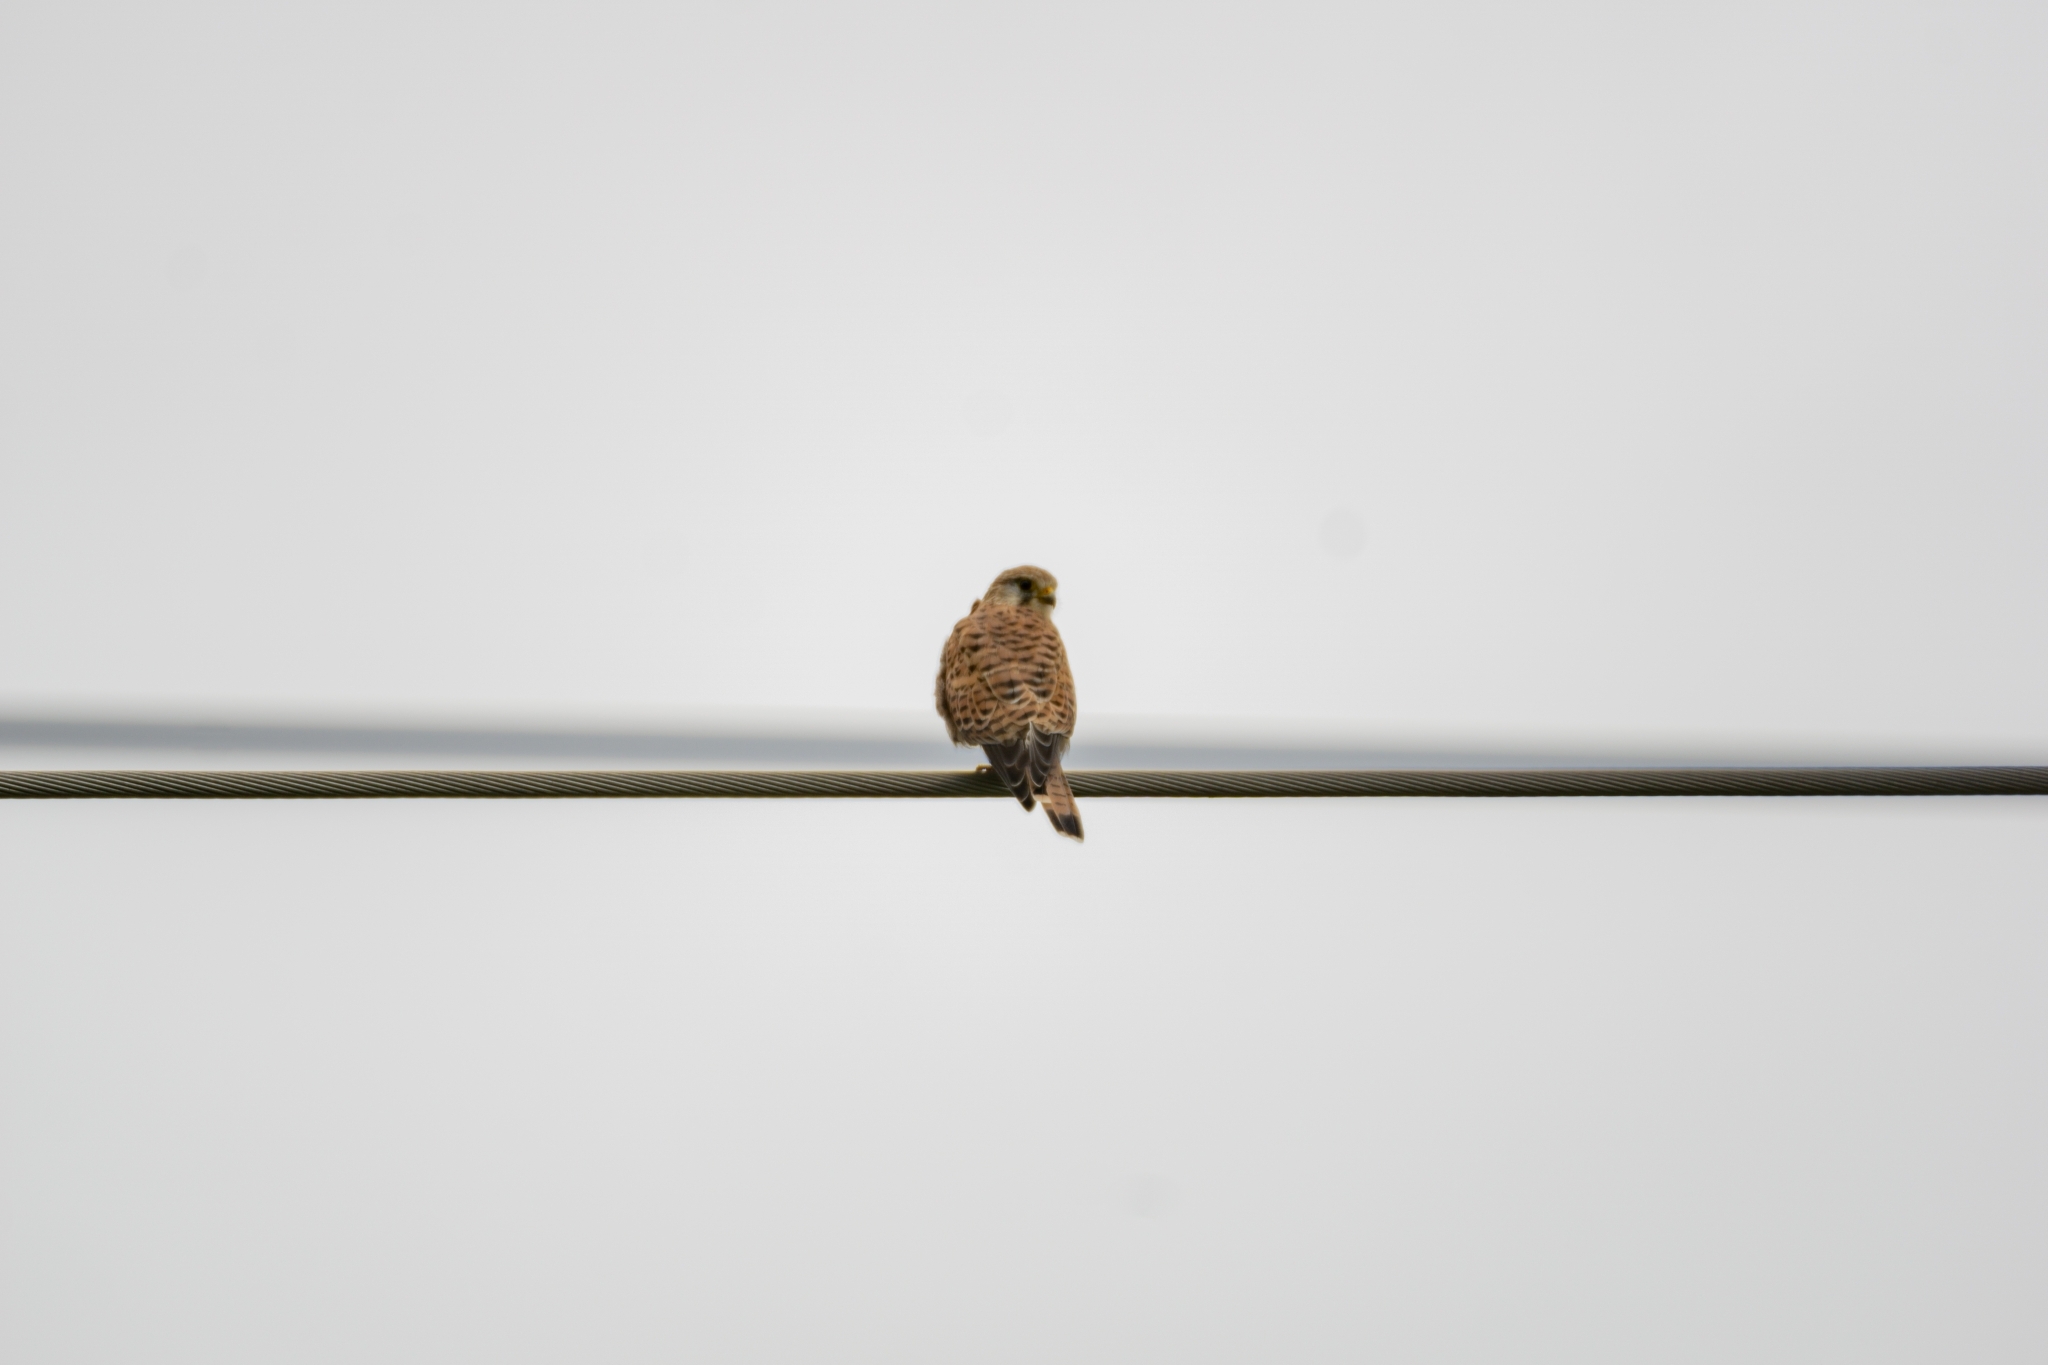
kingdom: Animalia
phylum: Chordata
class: Aves
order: Falconiformes
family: Falconidae
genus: Falco
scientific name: Falco tinnunculus
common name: Common kestrel
